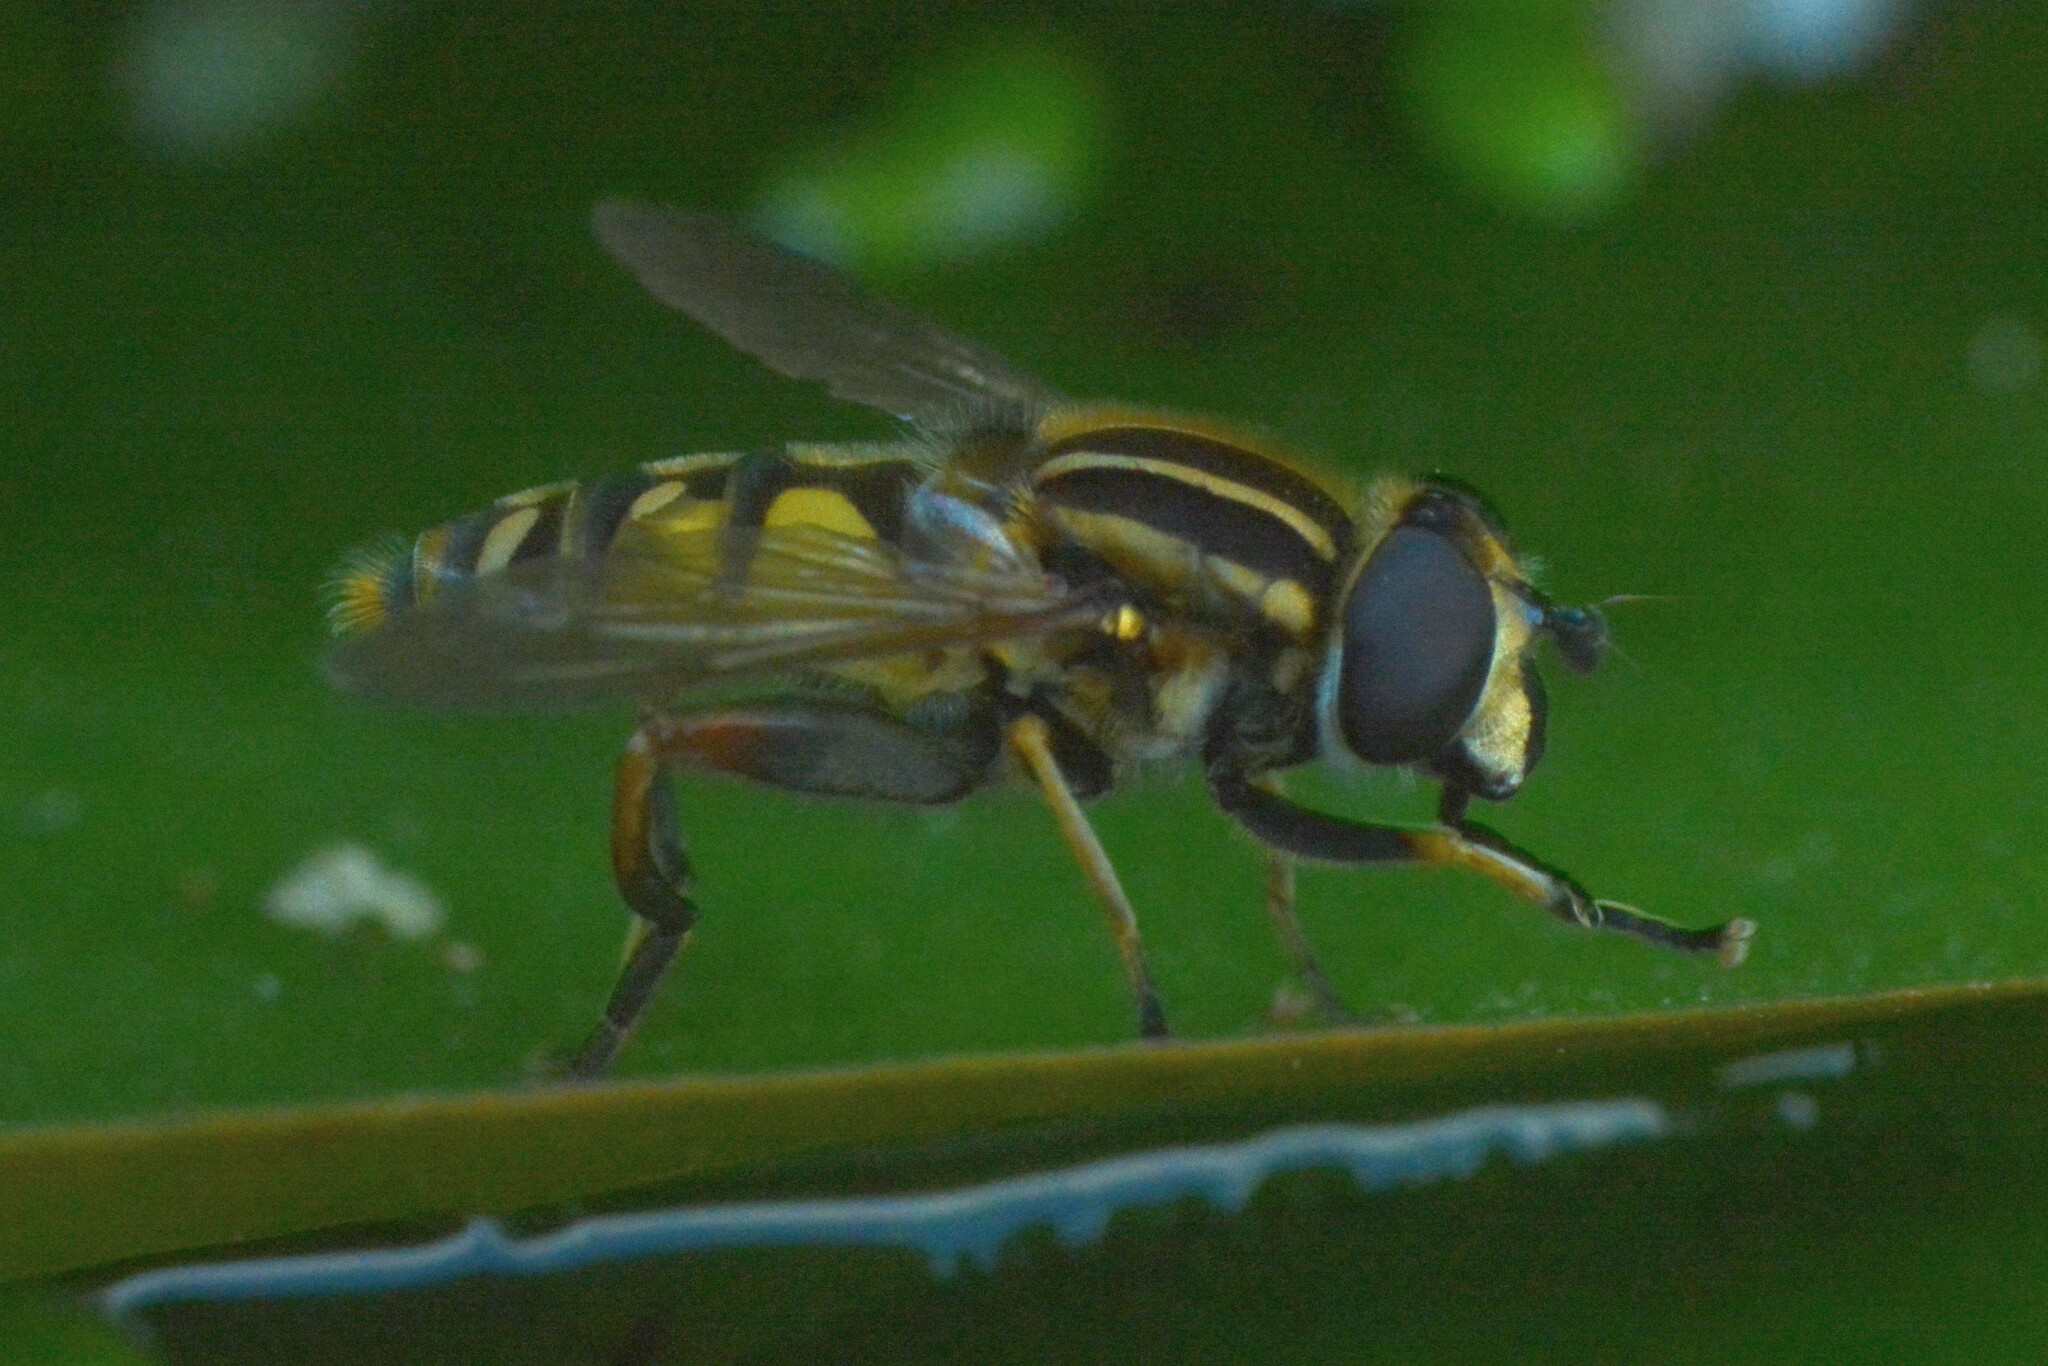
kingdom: Animalia
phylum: Arthropoda
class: Insecta
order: Diptera
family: Syrphidae
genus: Helophilus
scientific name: Helophilus pendulus
